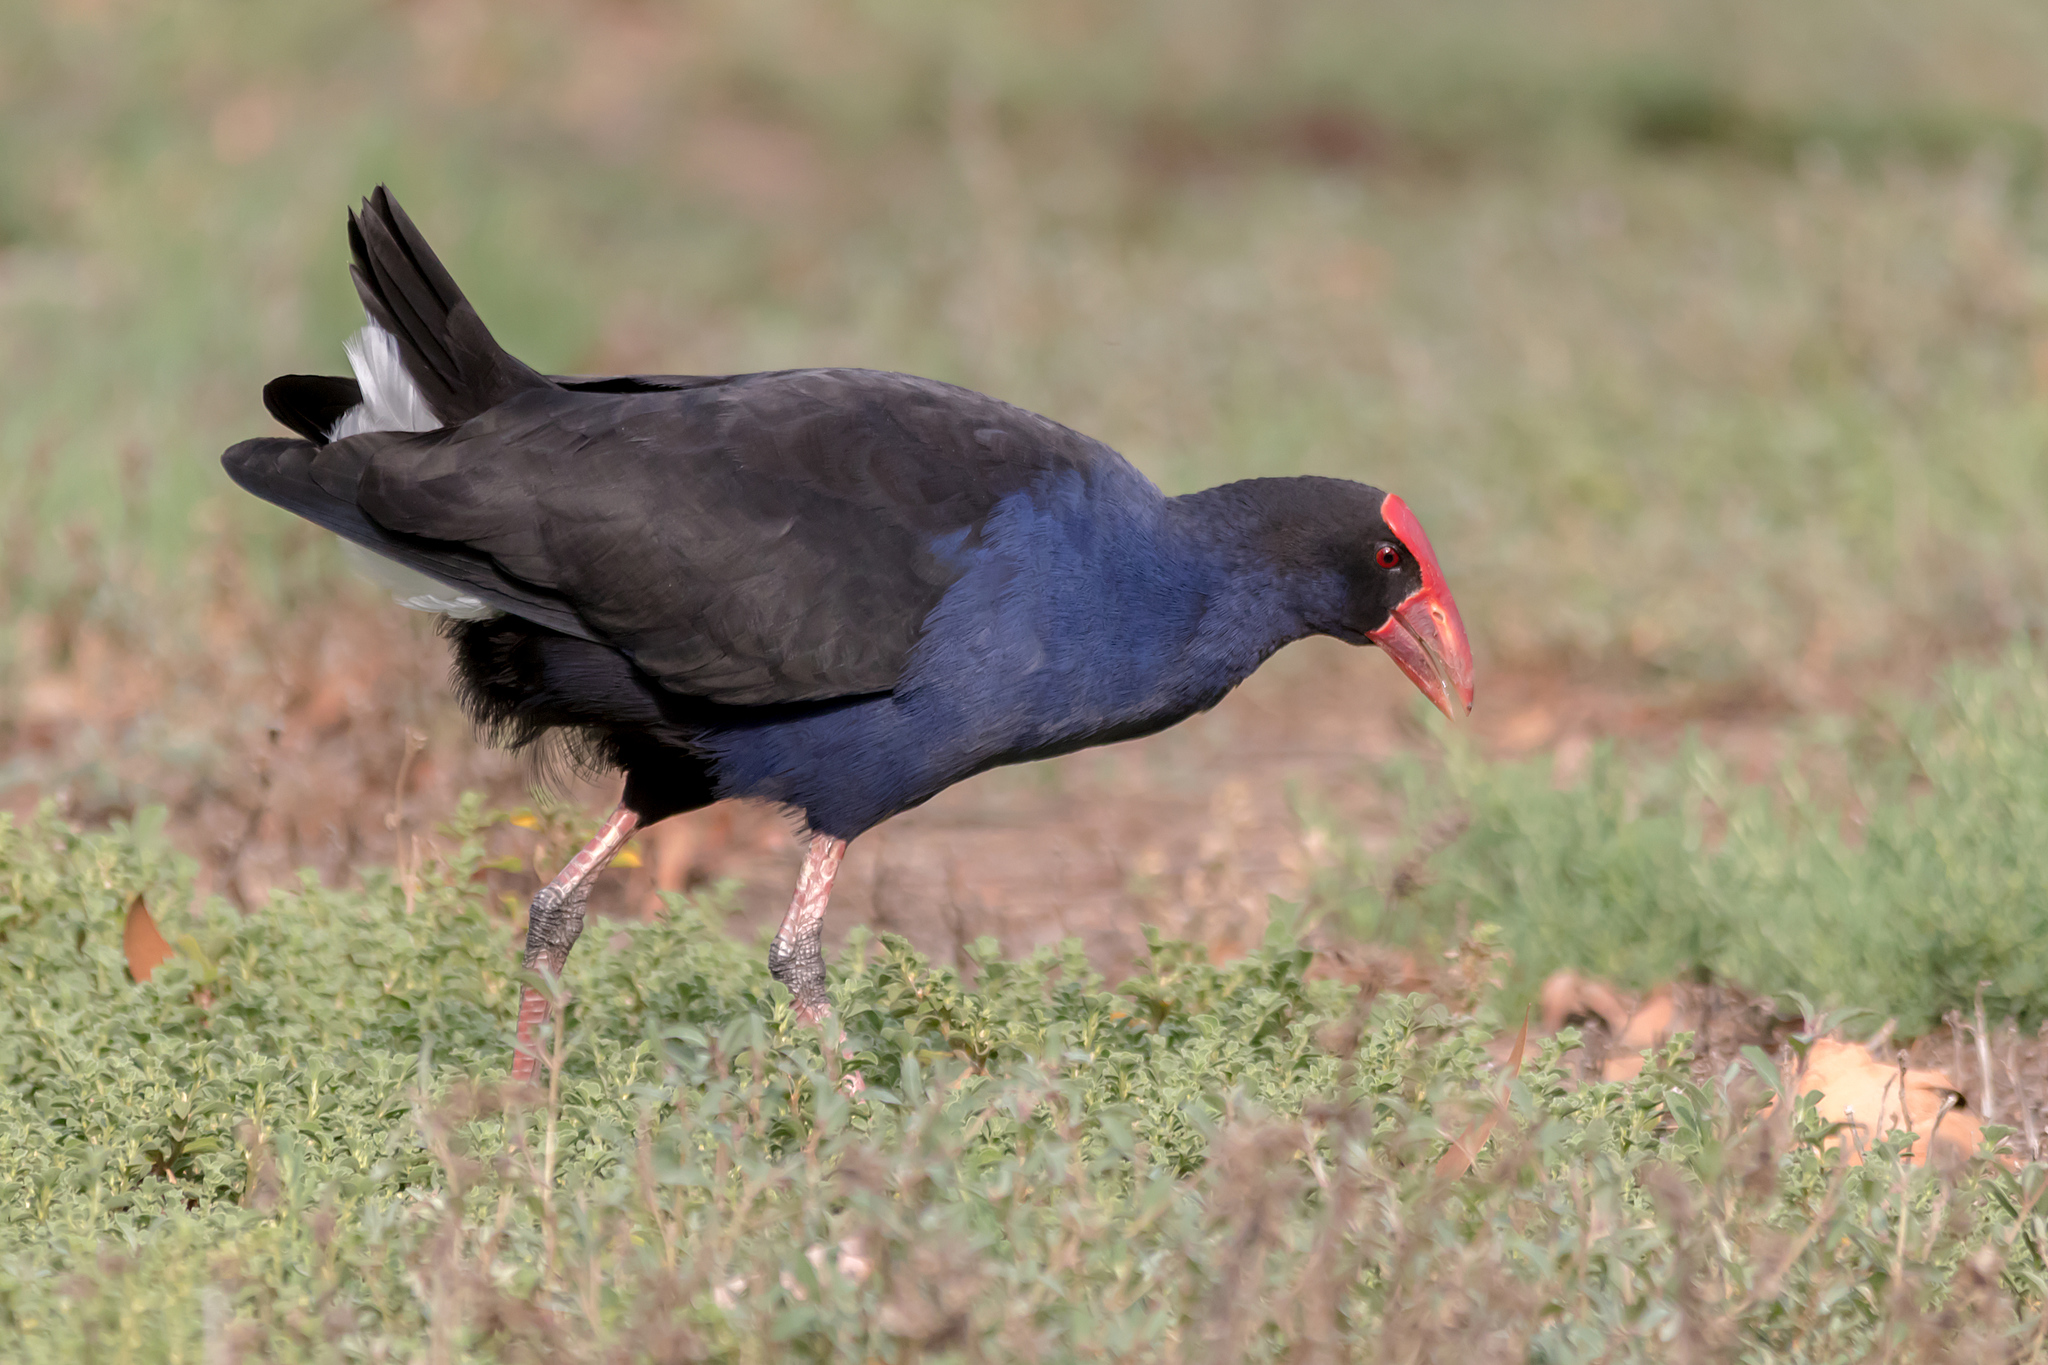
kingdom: Animalia
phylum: Chordata
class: Aves
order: Gruiformes
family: Rallidae
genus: Porphyrio
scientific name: Porphyrio melanotus
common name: Australasian swamphen
